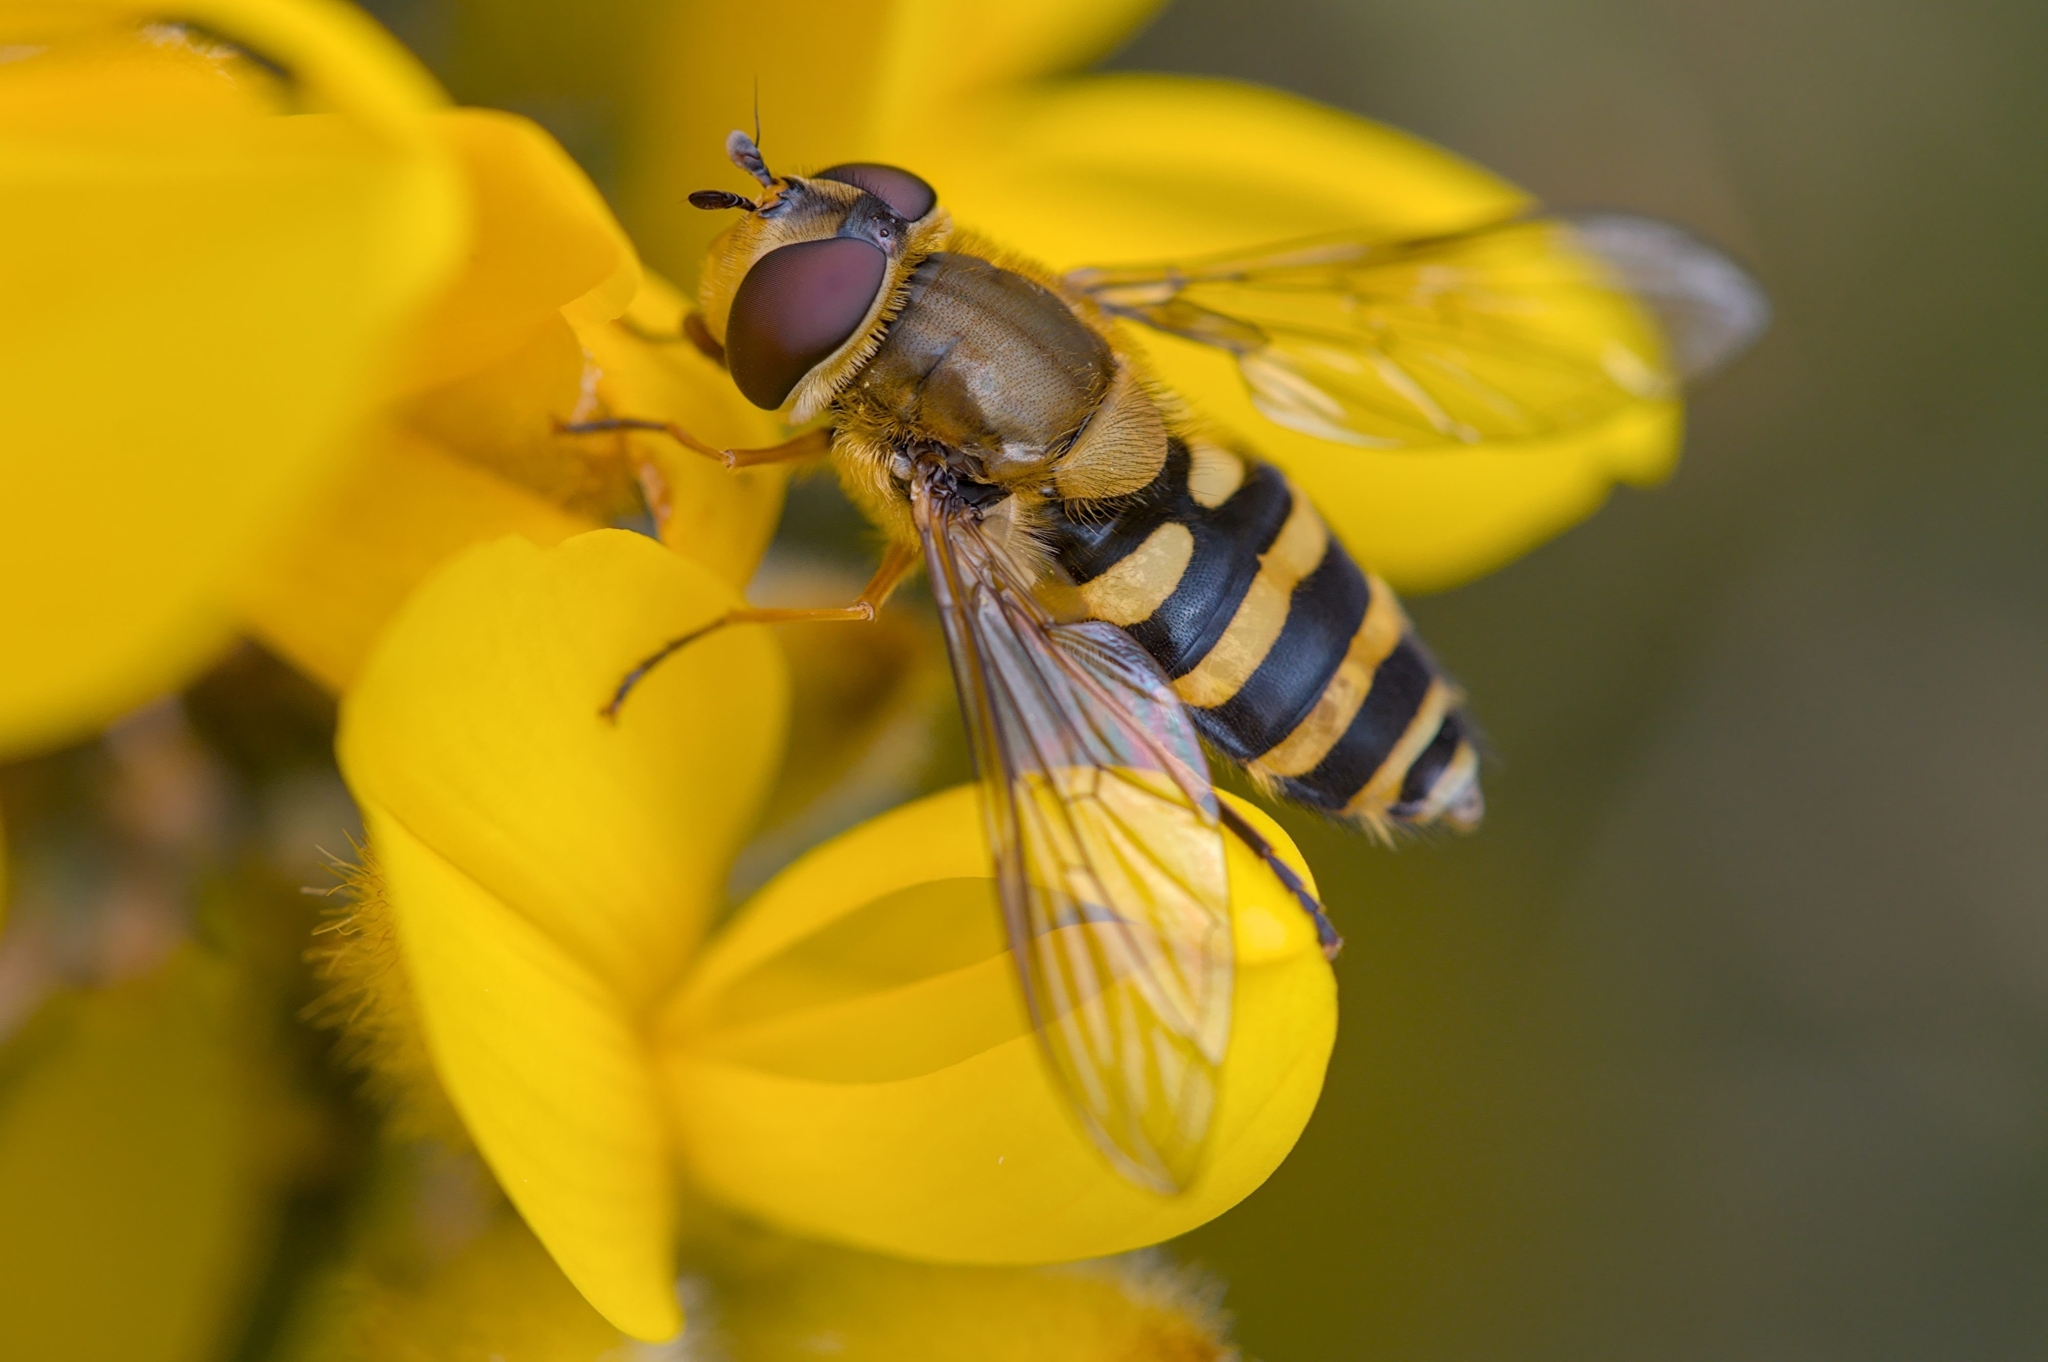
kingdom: Animalia
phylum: Arthropoda
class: Insecta
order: Diptera
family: Syrphidae
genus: Syrphus
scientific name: Syrphus
